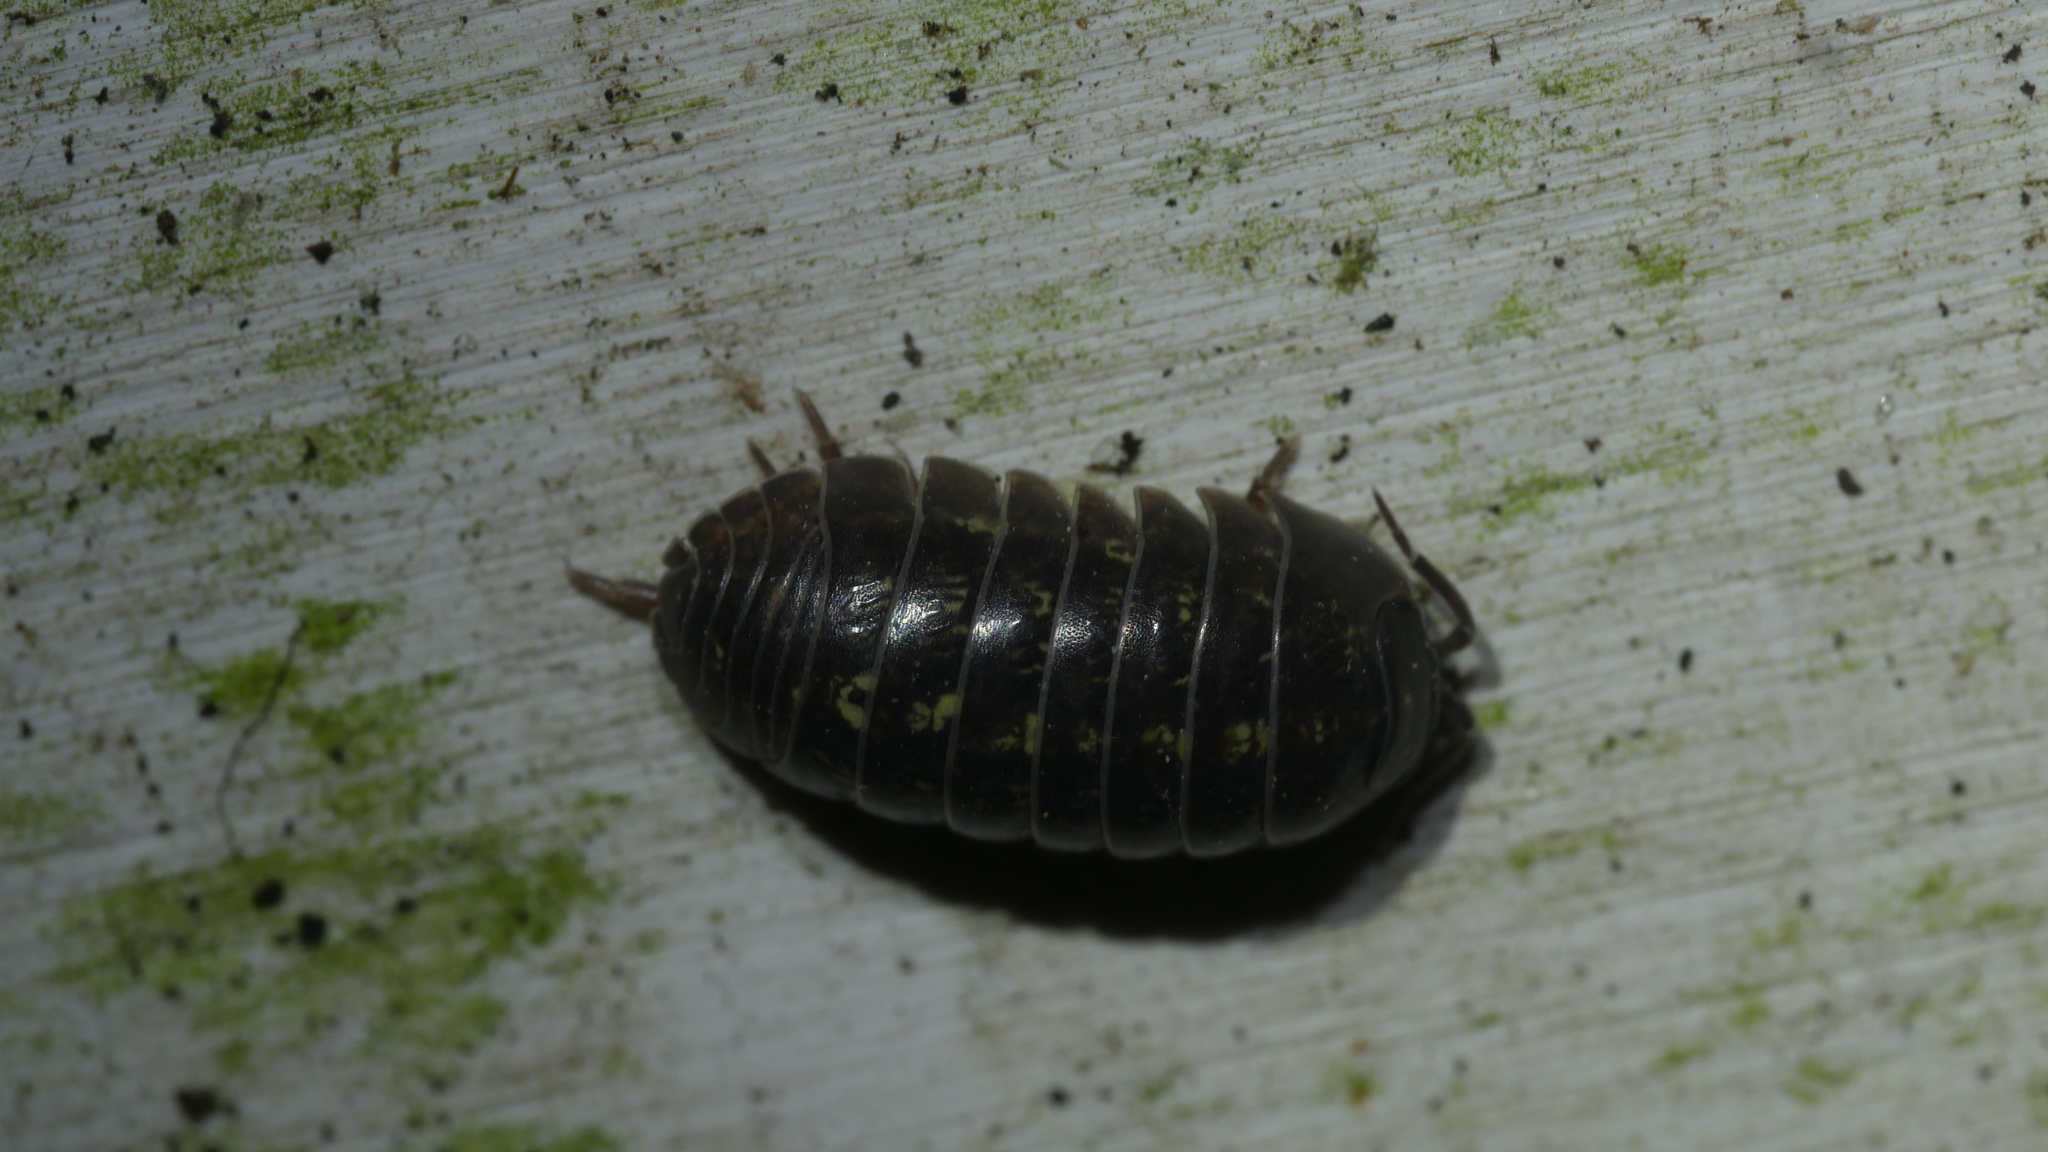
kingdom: Animalia
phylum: Arthropoda
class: Malacostraca
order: Isopoda
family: Armadillidiidae
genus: Armadillidium
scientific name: Armadillidium vulgare
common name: Common pill woodlouse
